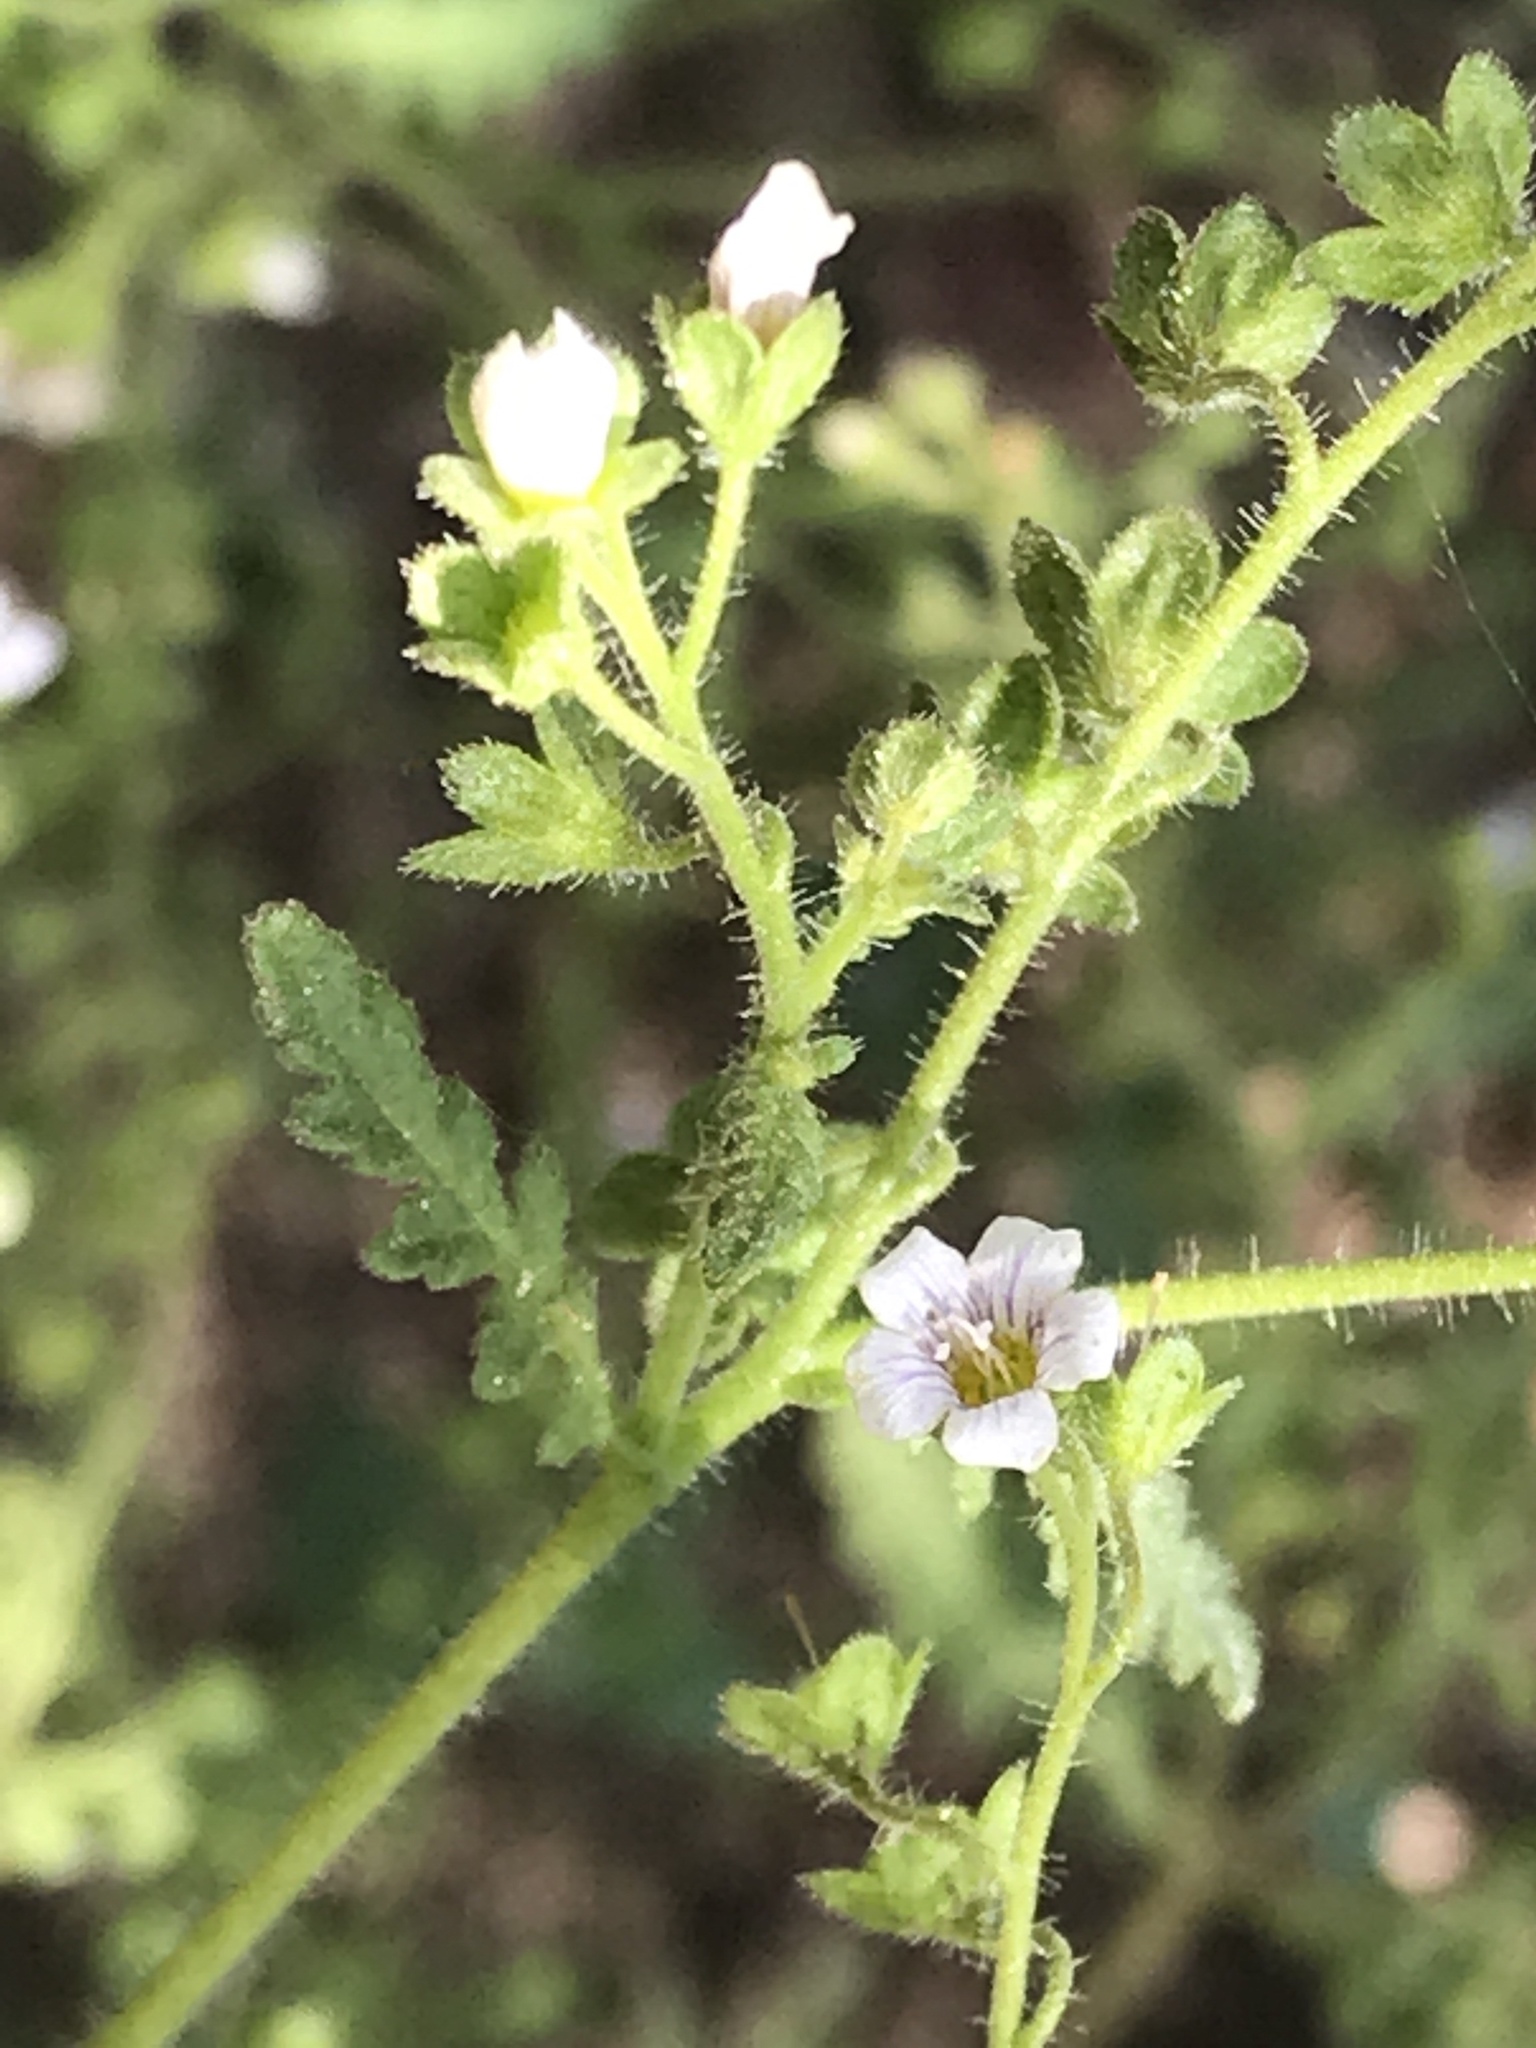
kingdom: Plantae
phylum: Tracheophyta
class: Magnoliopsida
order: Boraginales
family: Hydrophyllaceae
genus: Eucrypta
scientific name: Eucrypta chrysanthemifolia
